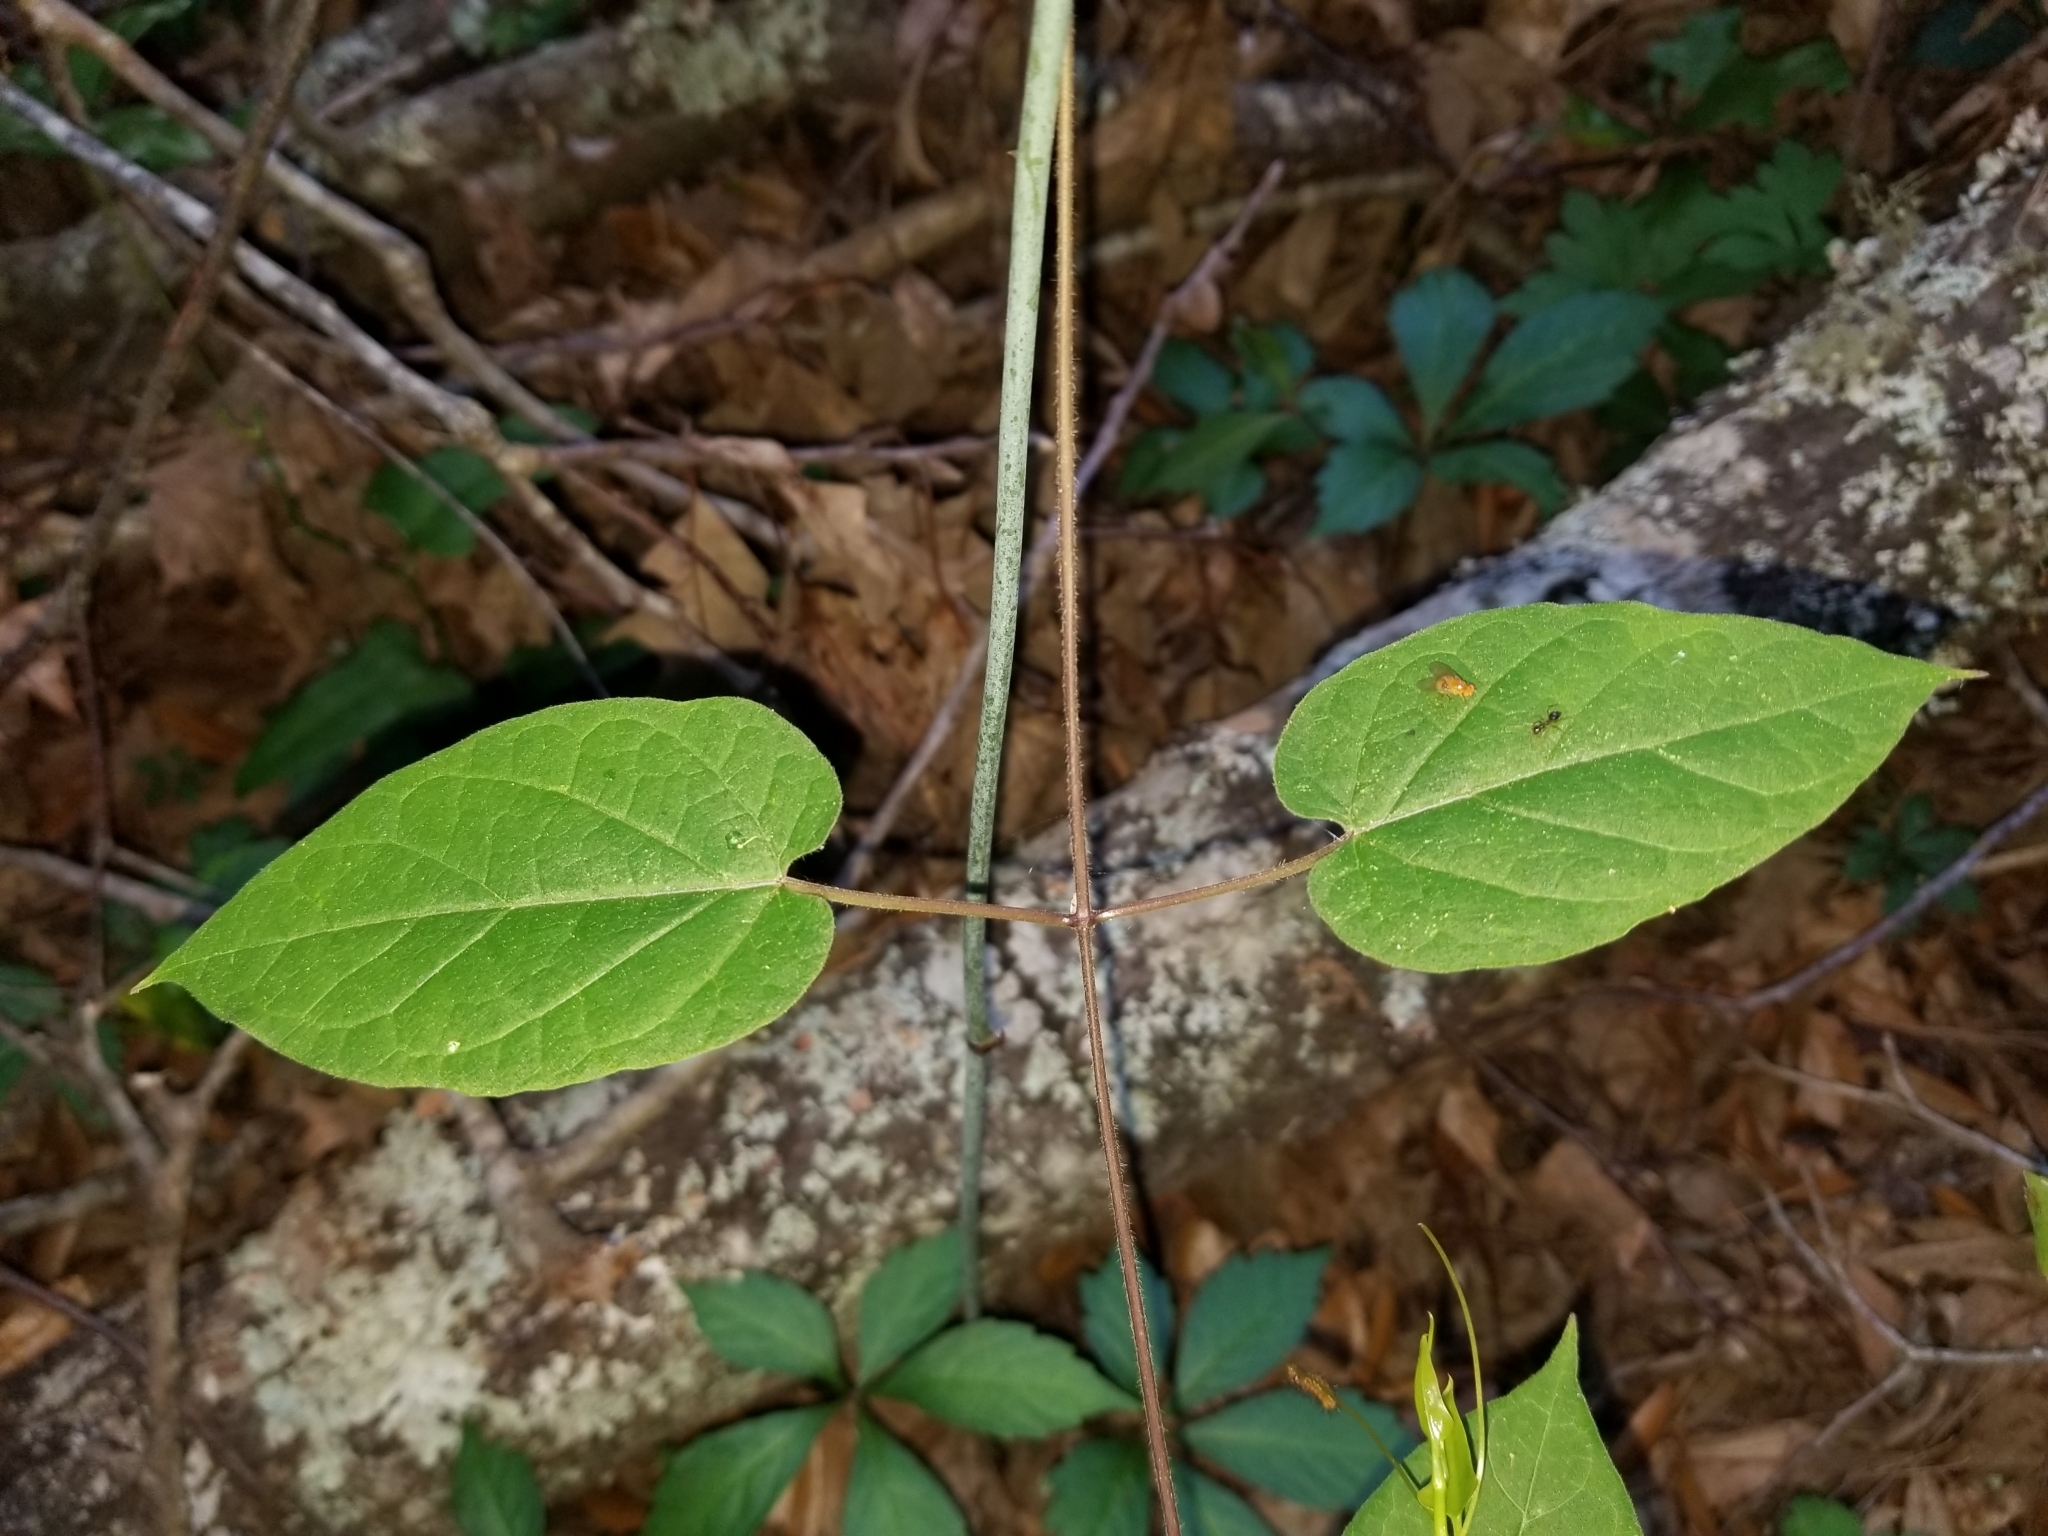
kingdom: Plantae
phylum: Tracheophyta
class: Magnoliopsida
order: Gentianales
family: Apocynaceae
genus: Gonolobus
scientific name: Gonolobus suberosus
